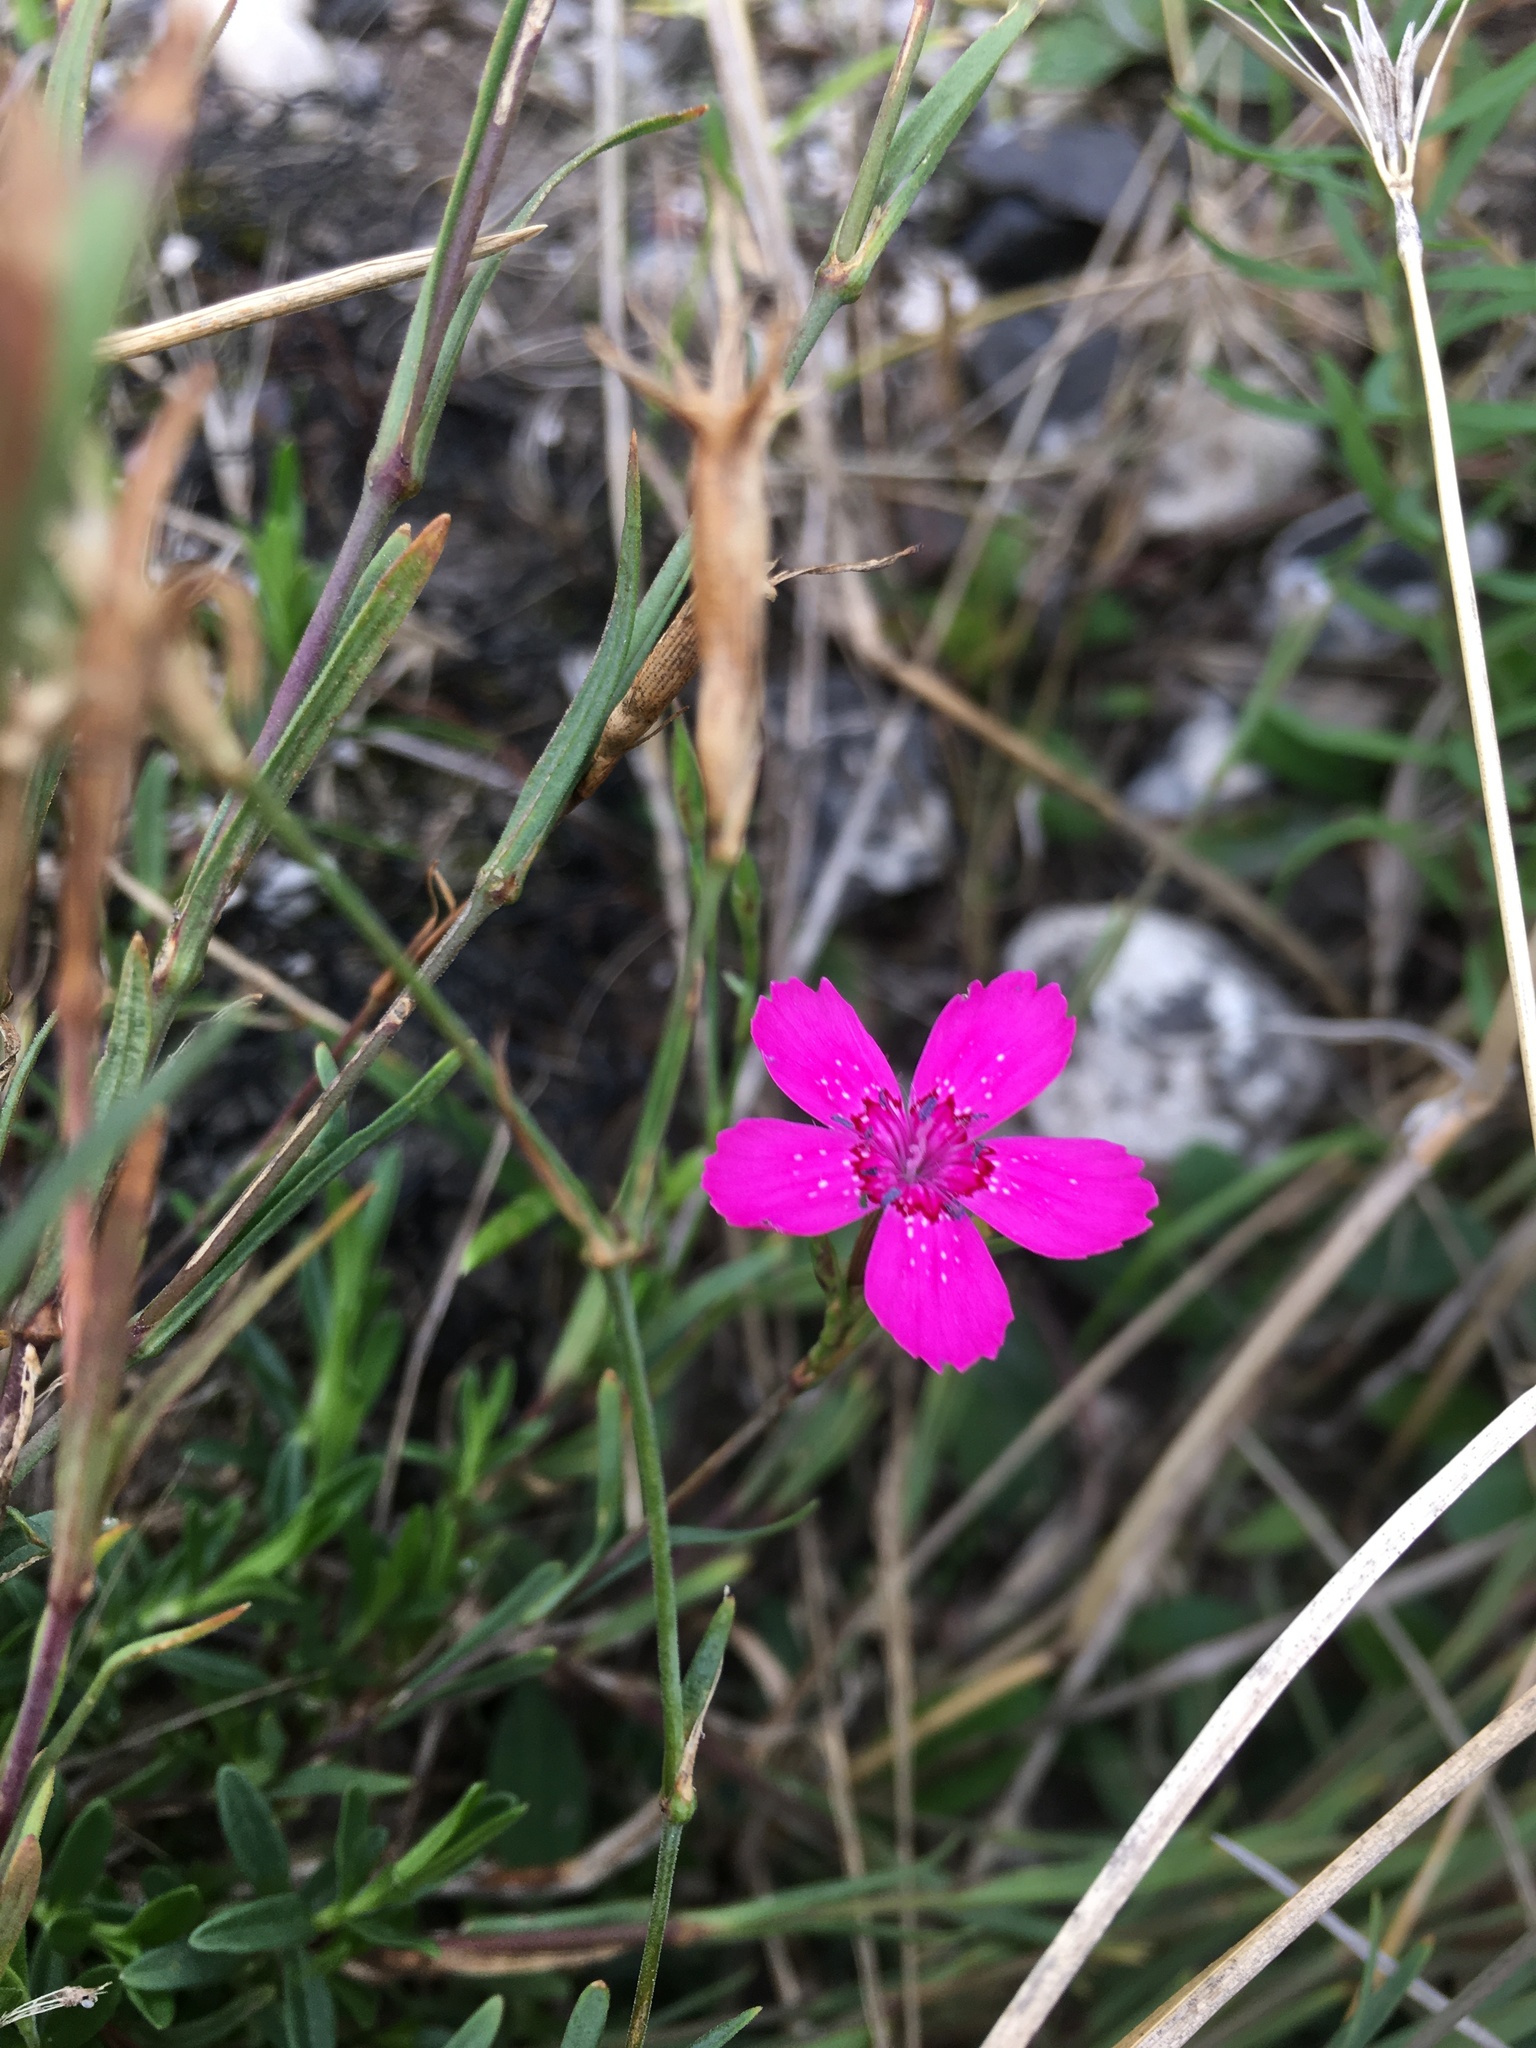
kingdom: Plantae
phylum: Tracheophyta
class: Magnoliopsida
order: Caryophyllales
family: Caryophyllaceae
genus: Dianthus
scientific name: Dianthus deltoides
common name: Maiden pink
